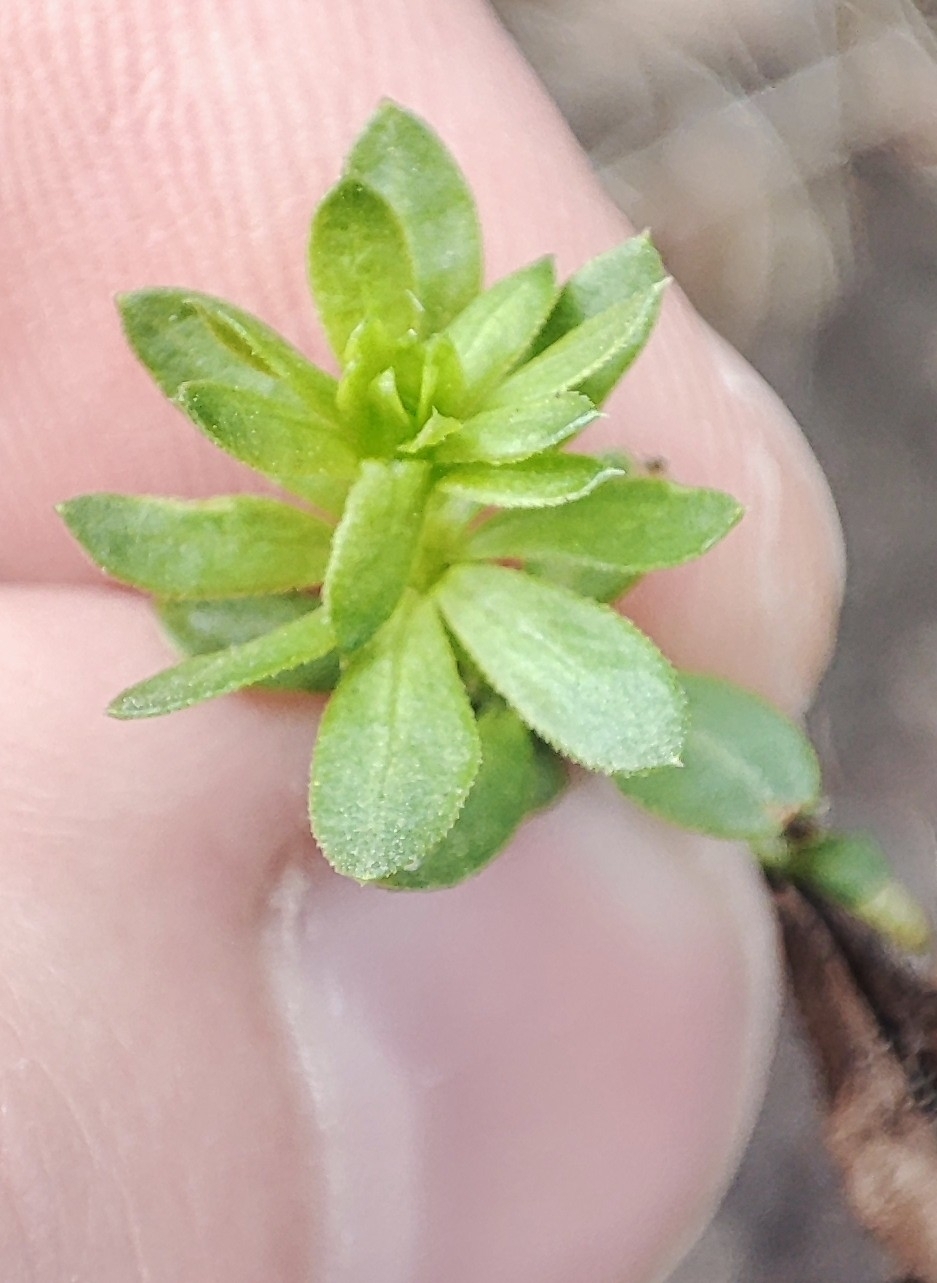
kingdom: Plantae
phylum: Tracheophyta
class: Magnoliopsida
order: Gentianales
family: Rubiaceae
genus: Galium
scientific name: Galium mollugo
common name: Hedge bedstraw
